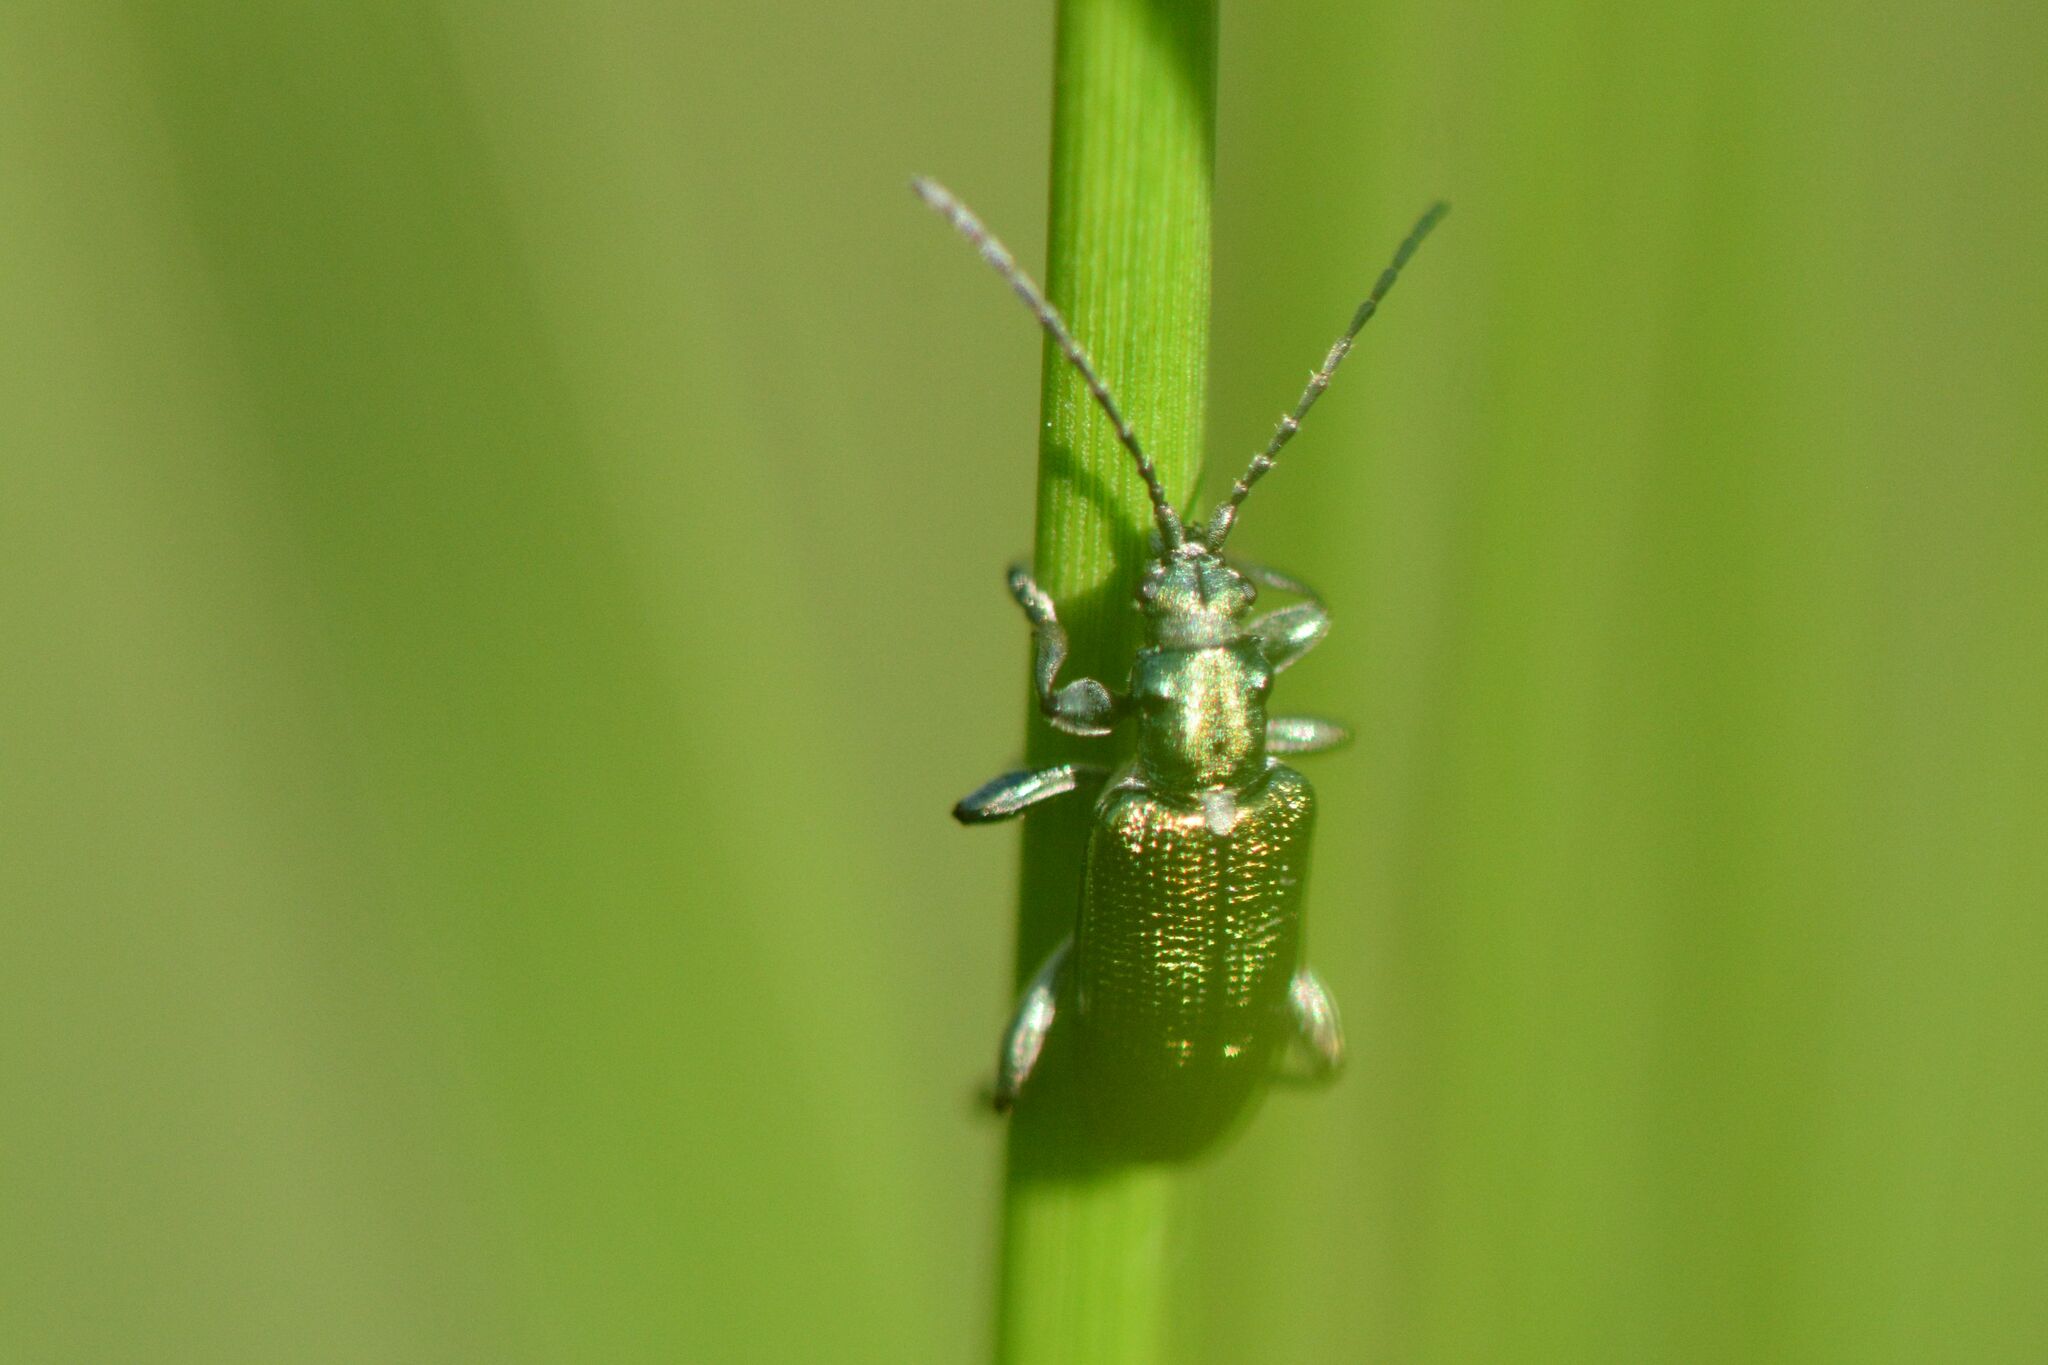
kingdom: Animalia
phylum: Arthropoda
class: Insecta
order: Coleoptera
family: Chrysomelidae
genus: Plateumaris
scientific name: Plateumaris sericea
